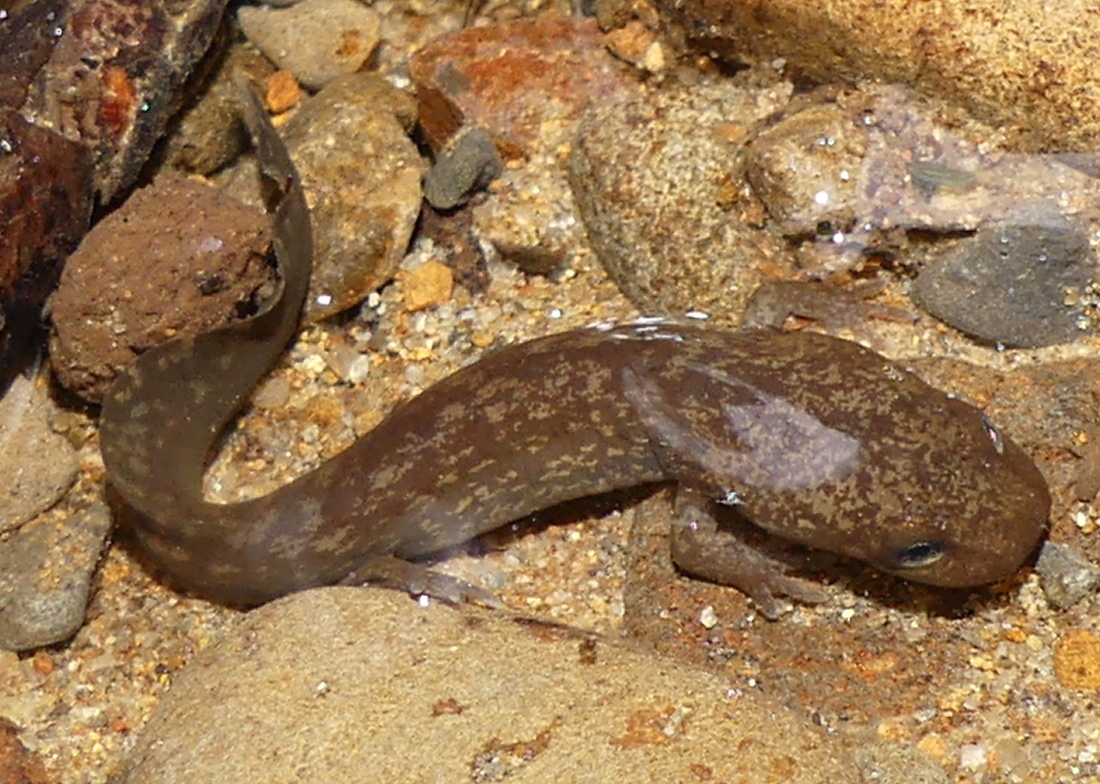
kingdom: Animalia
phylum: Chordata
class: Amphibia
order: Caudata
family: Ambystomatidae
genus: Dicamptodon
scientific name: Dicamptodon tenebrosus
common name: Coastal giant salamander
